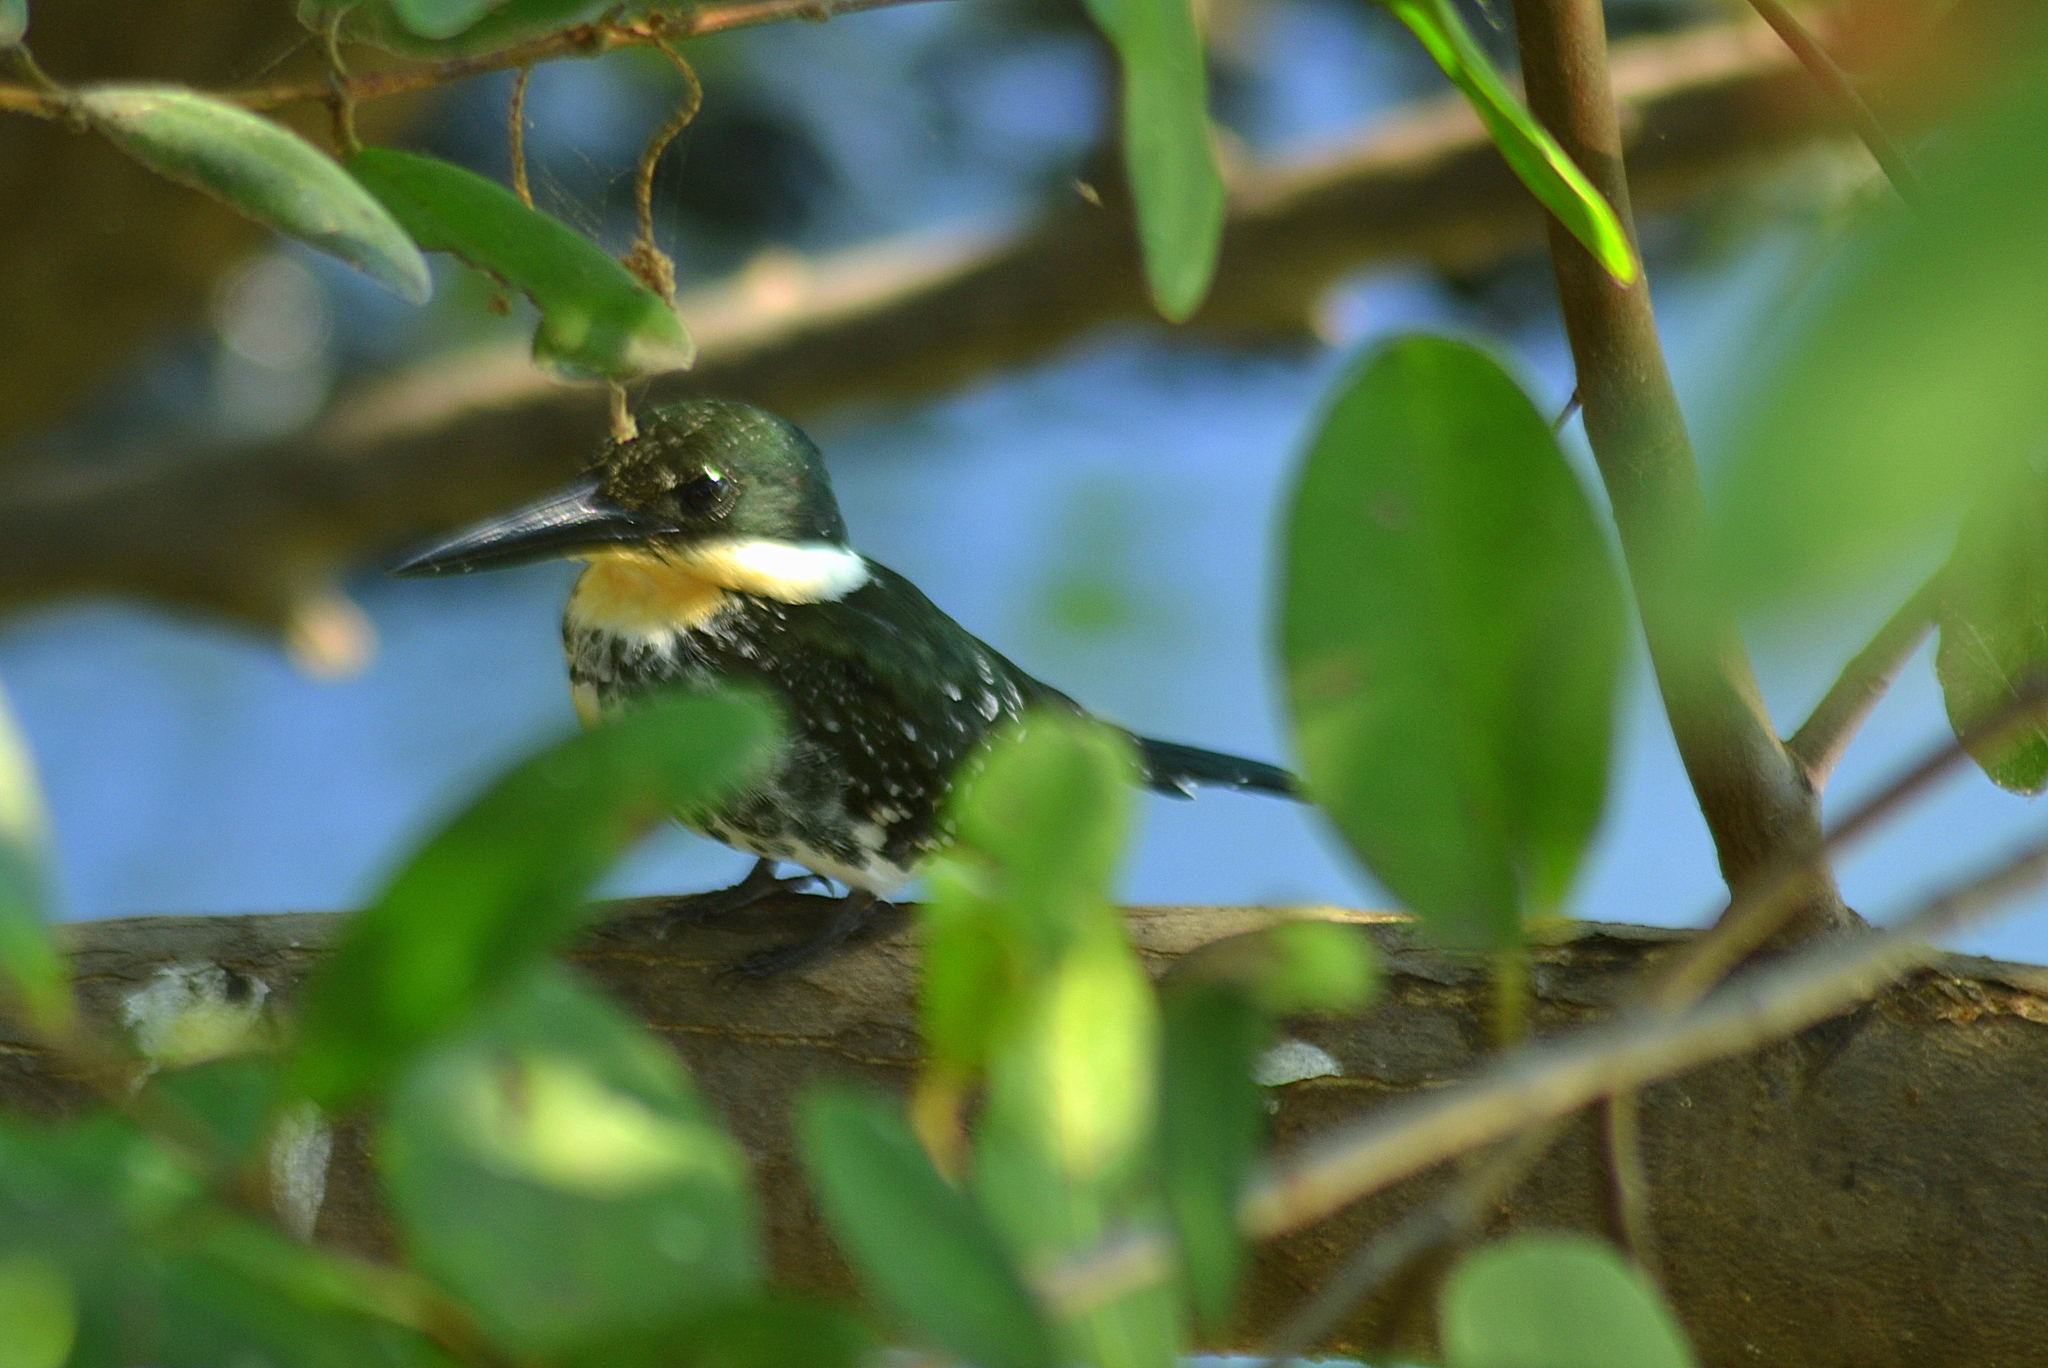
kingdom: Animalia
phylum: Chordata
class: Aves
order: Coraciiformes
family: Alcedinidae
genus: Chloroceryle
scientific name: Chloroceryle americana
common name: Green kingfisher
